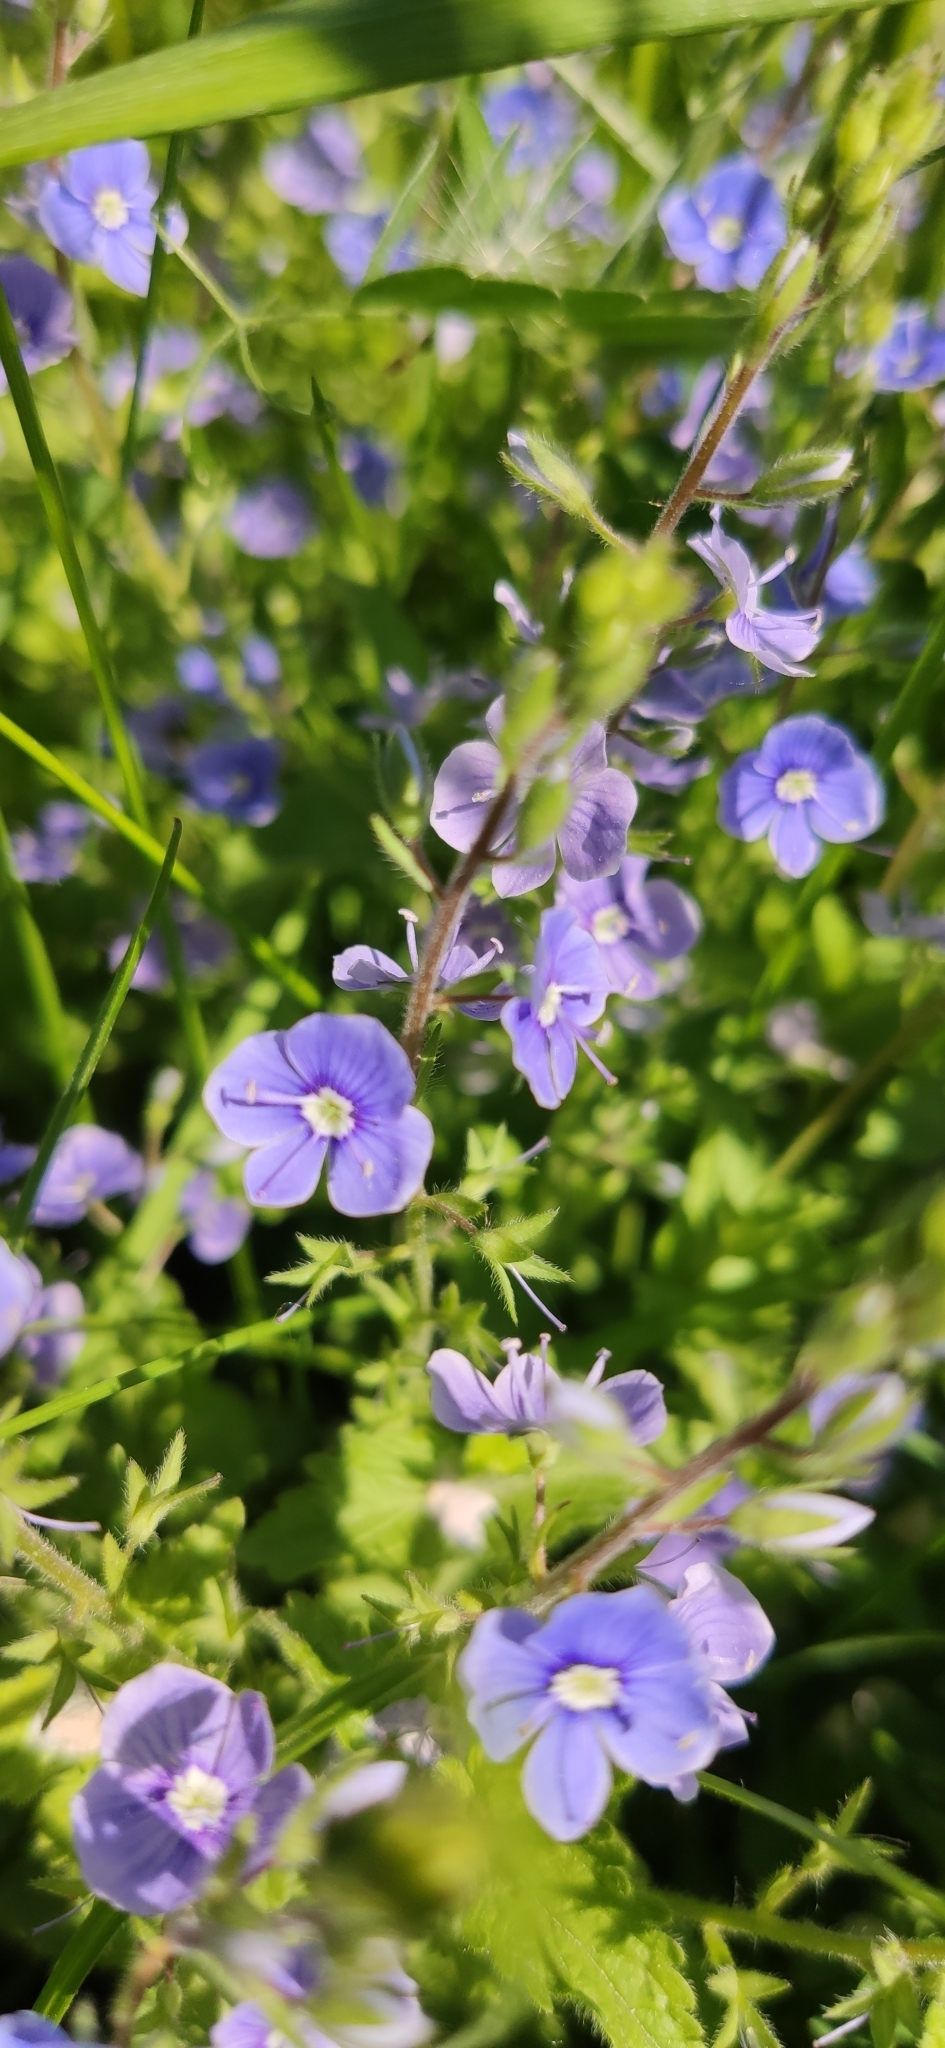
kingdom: Plantae
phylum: Tracheophyta
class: Magnoliopsida
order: Lamiales
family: Plantaginaceae
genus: Veronica
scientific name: Veronica chamaedrys
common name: Germander speedwell
